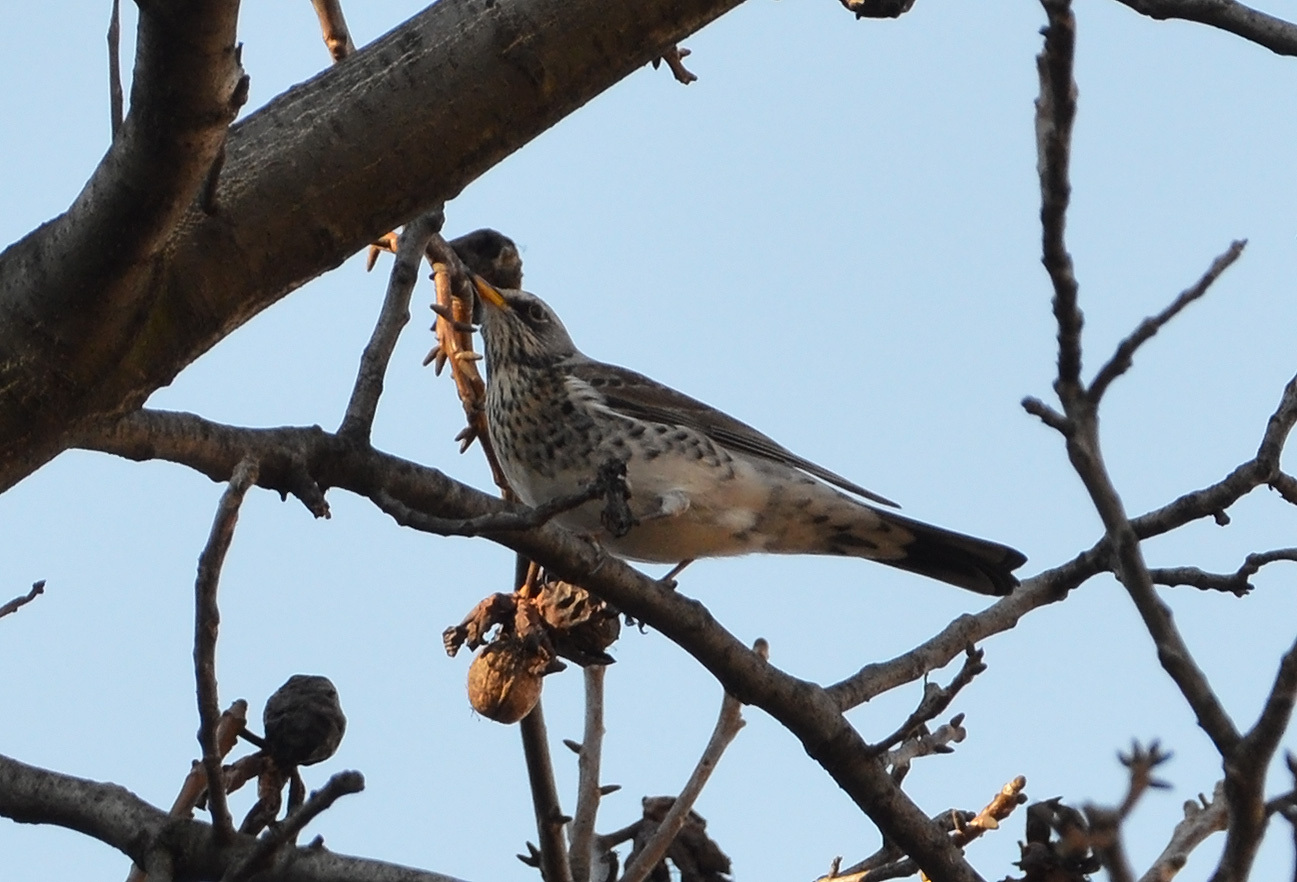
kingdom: Animalia
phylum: Chordata
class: Aves
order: Passeriformes
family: Turdidae
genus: Turdus
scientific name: Turdus pilaris
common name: Fieldfare
